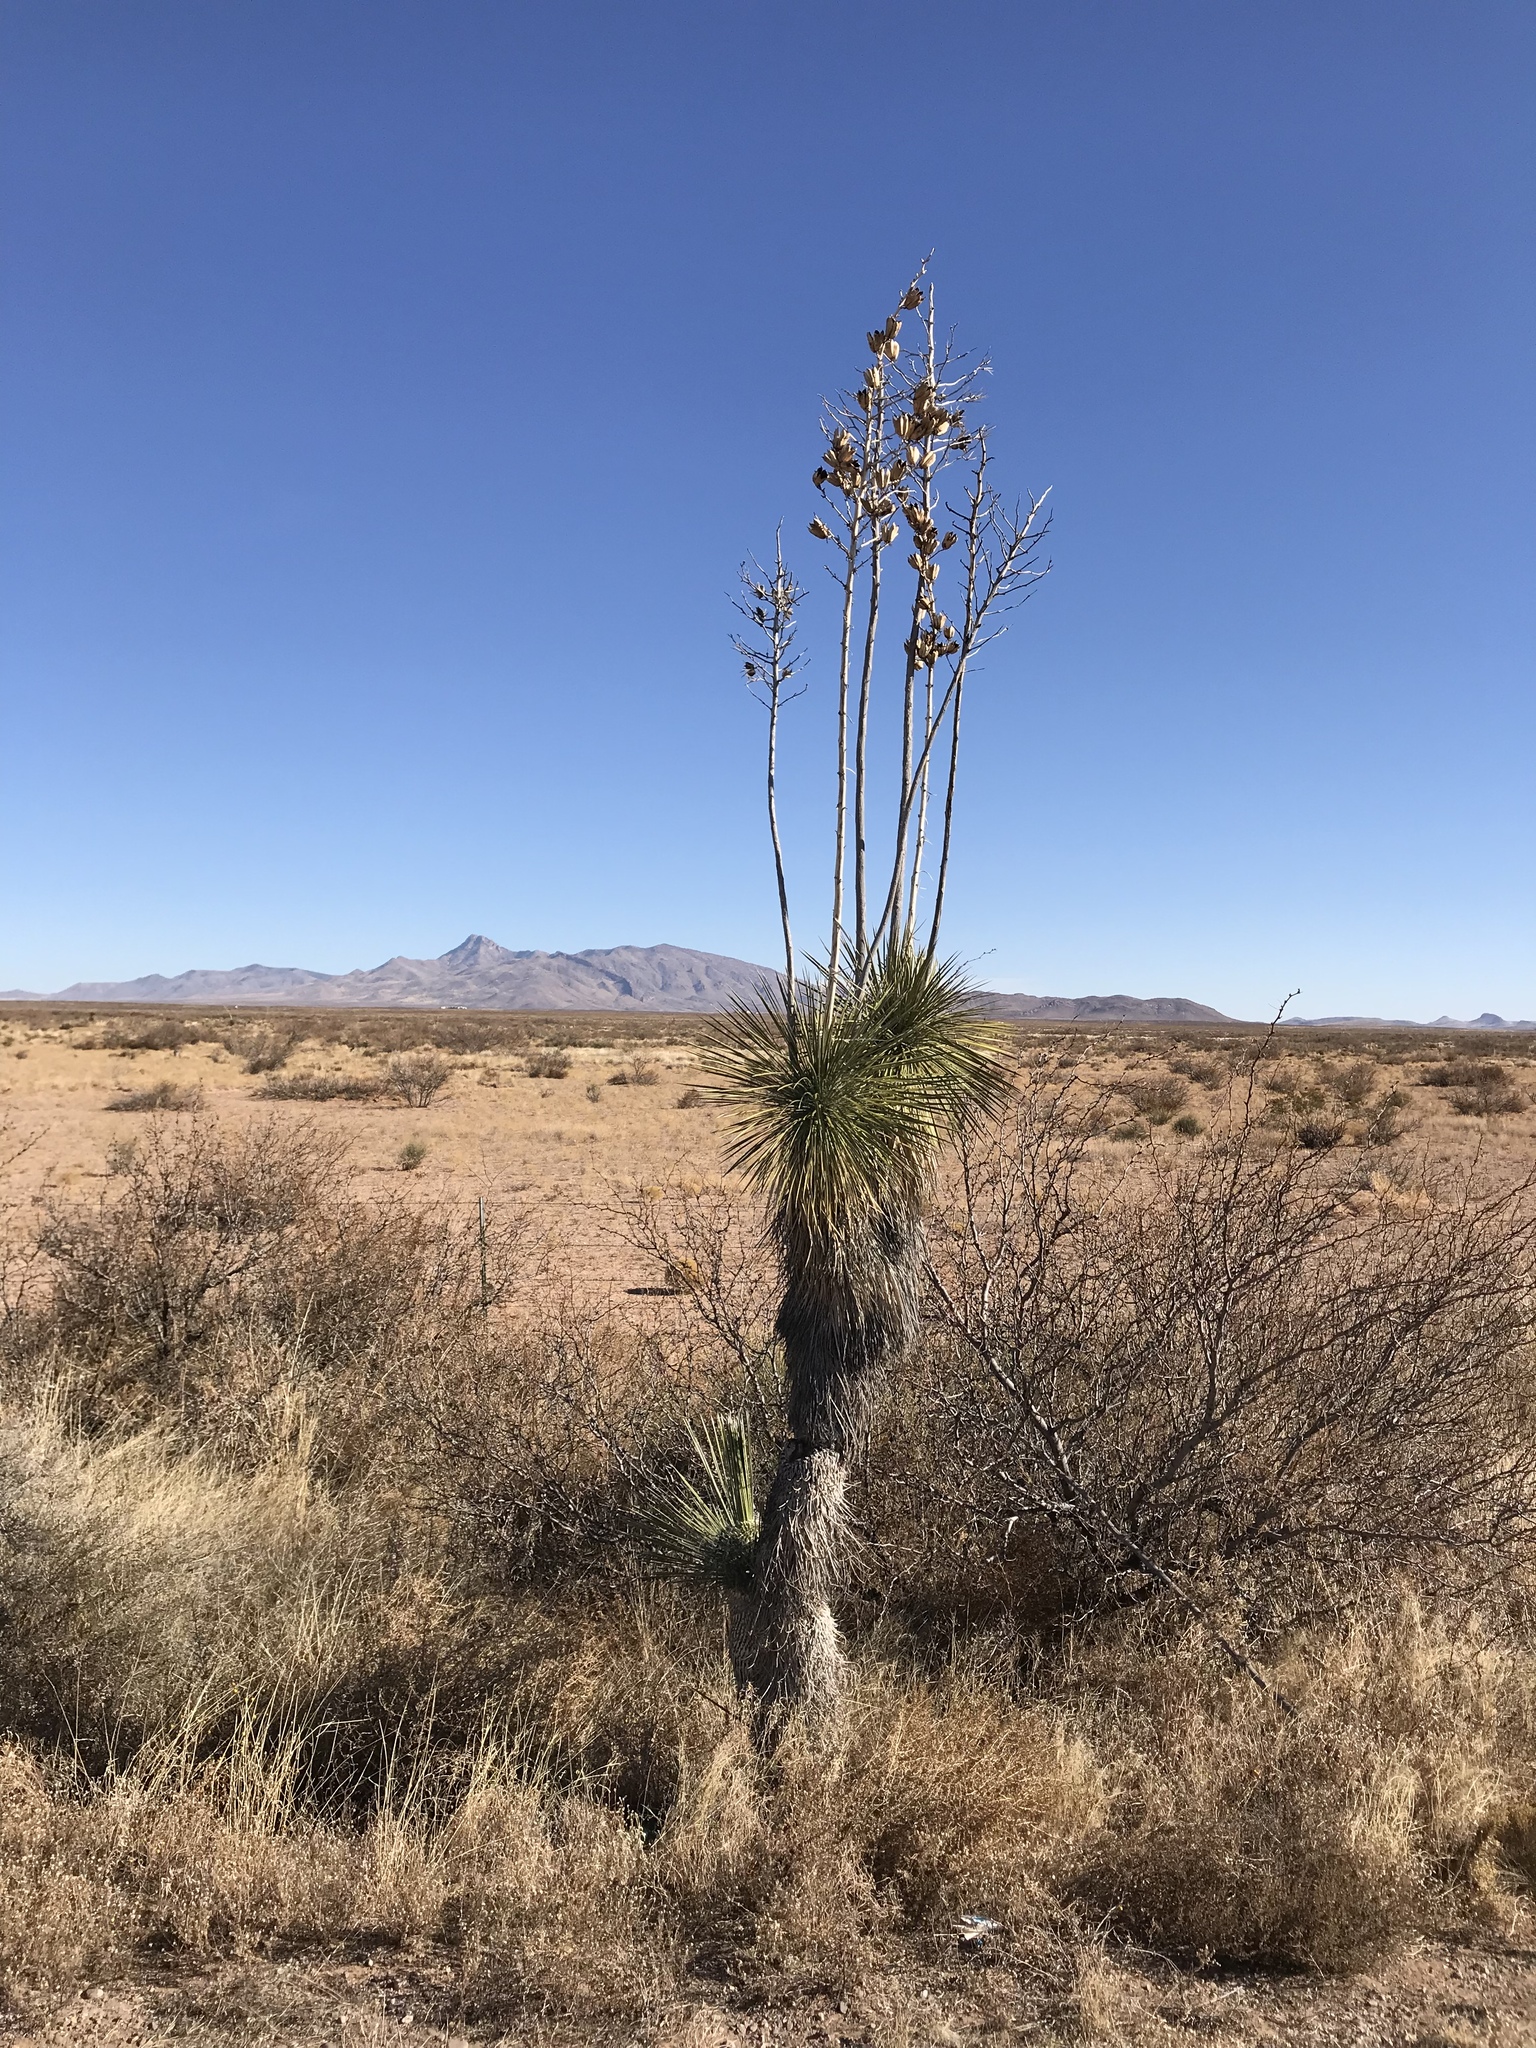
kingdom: Plantae
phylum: Tracheophyta
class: Liliopsida
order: Asparagales
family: Asparagaceae
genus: Yucca
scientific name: Yucca elata
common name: Palmella
